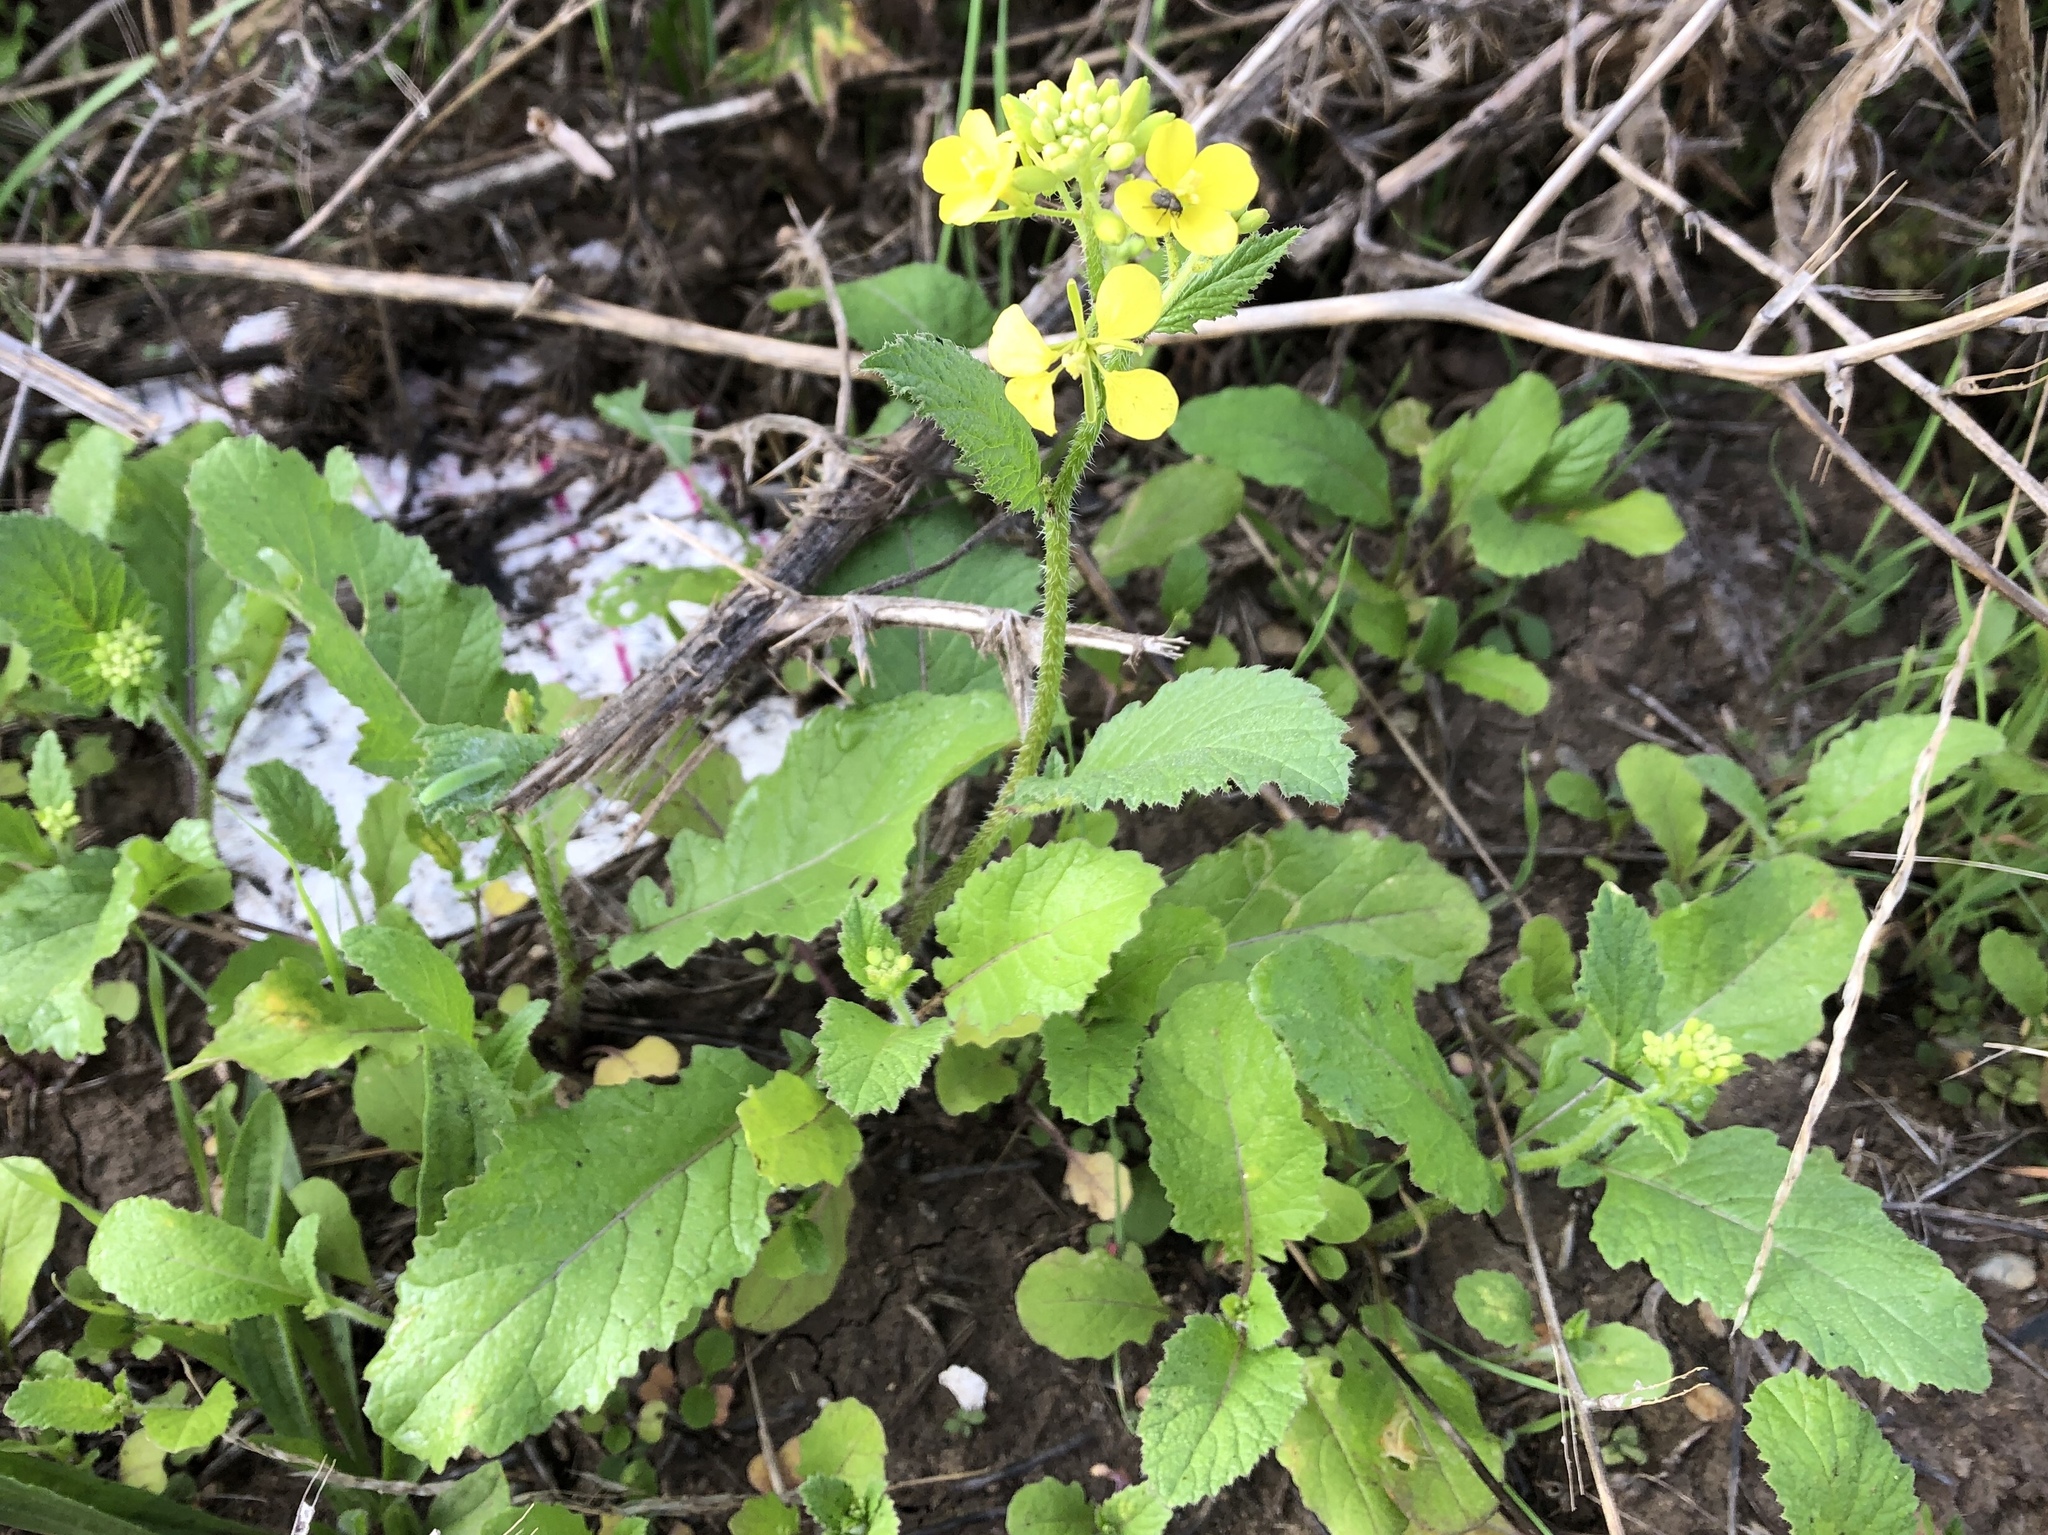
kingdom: Plantae
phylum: Tracheophyta
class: Magnoliopsida
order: Brassicales
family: Brassicaceae
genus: Sinapis
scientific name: Sinapis arvensis
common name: Charlock
